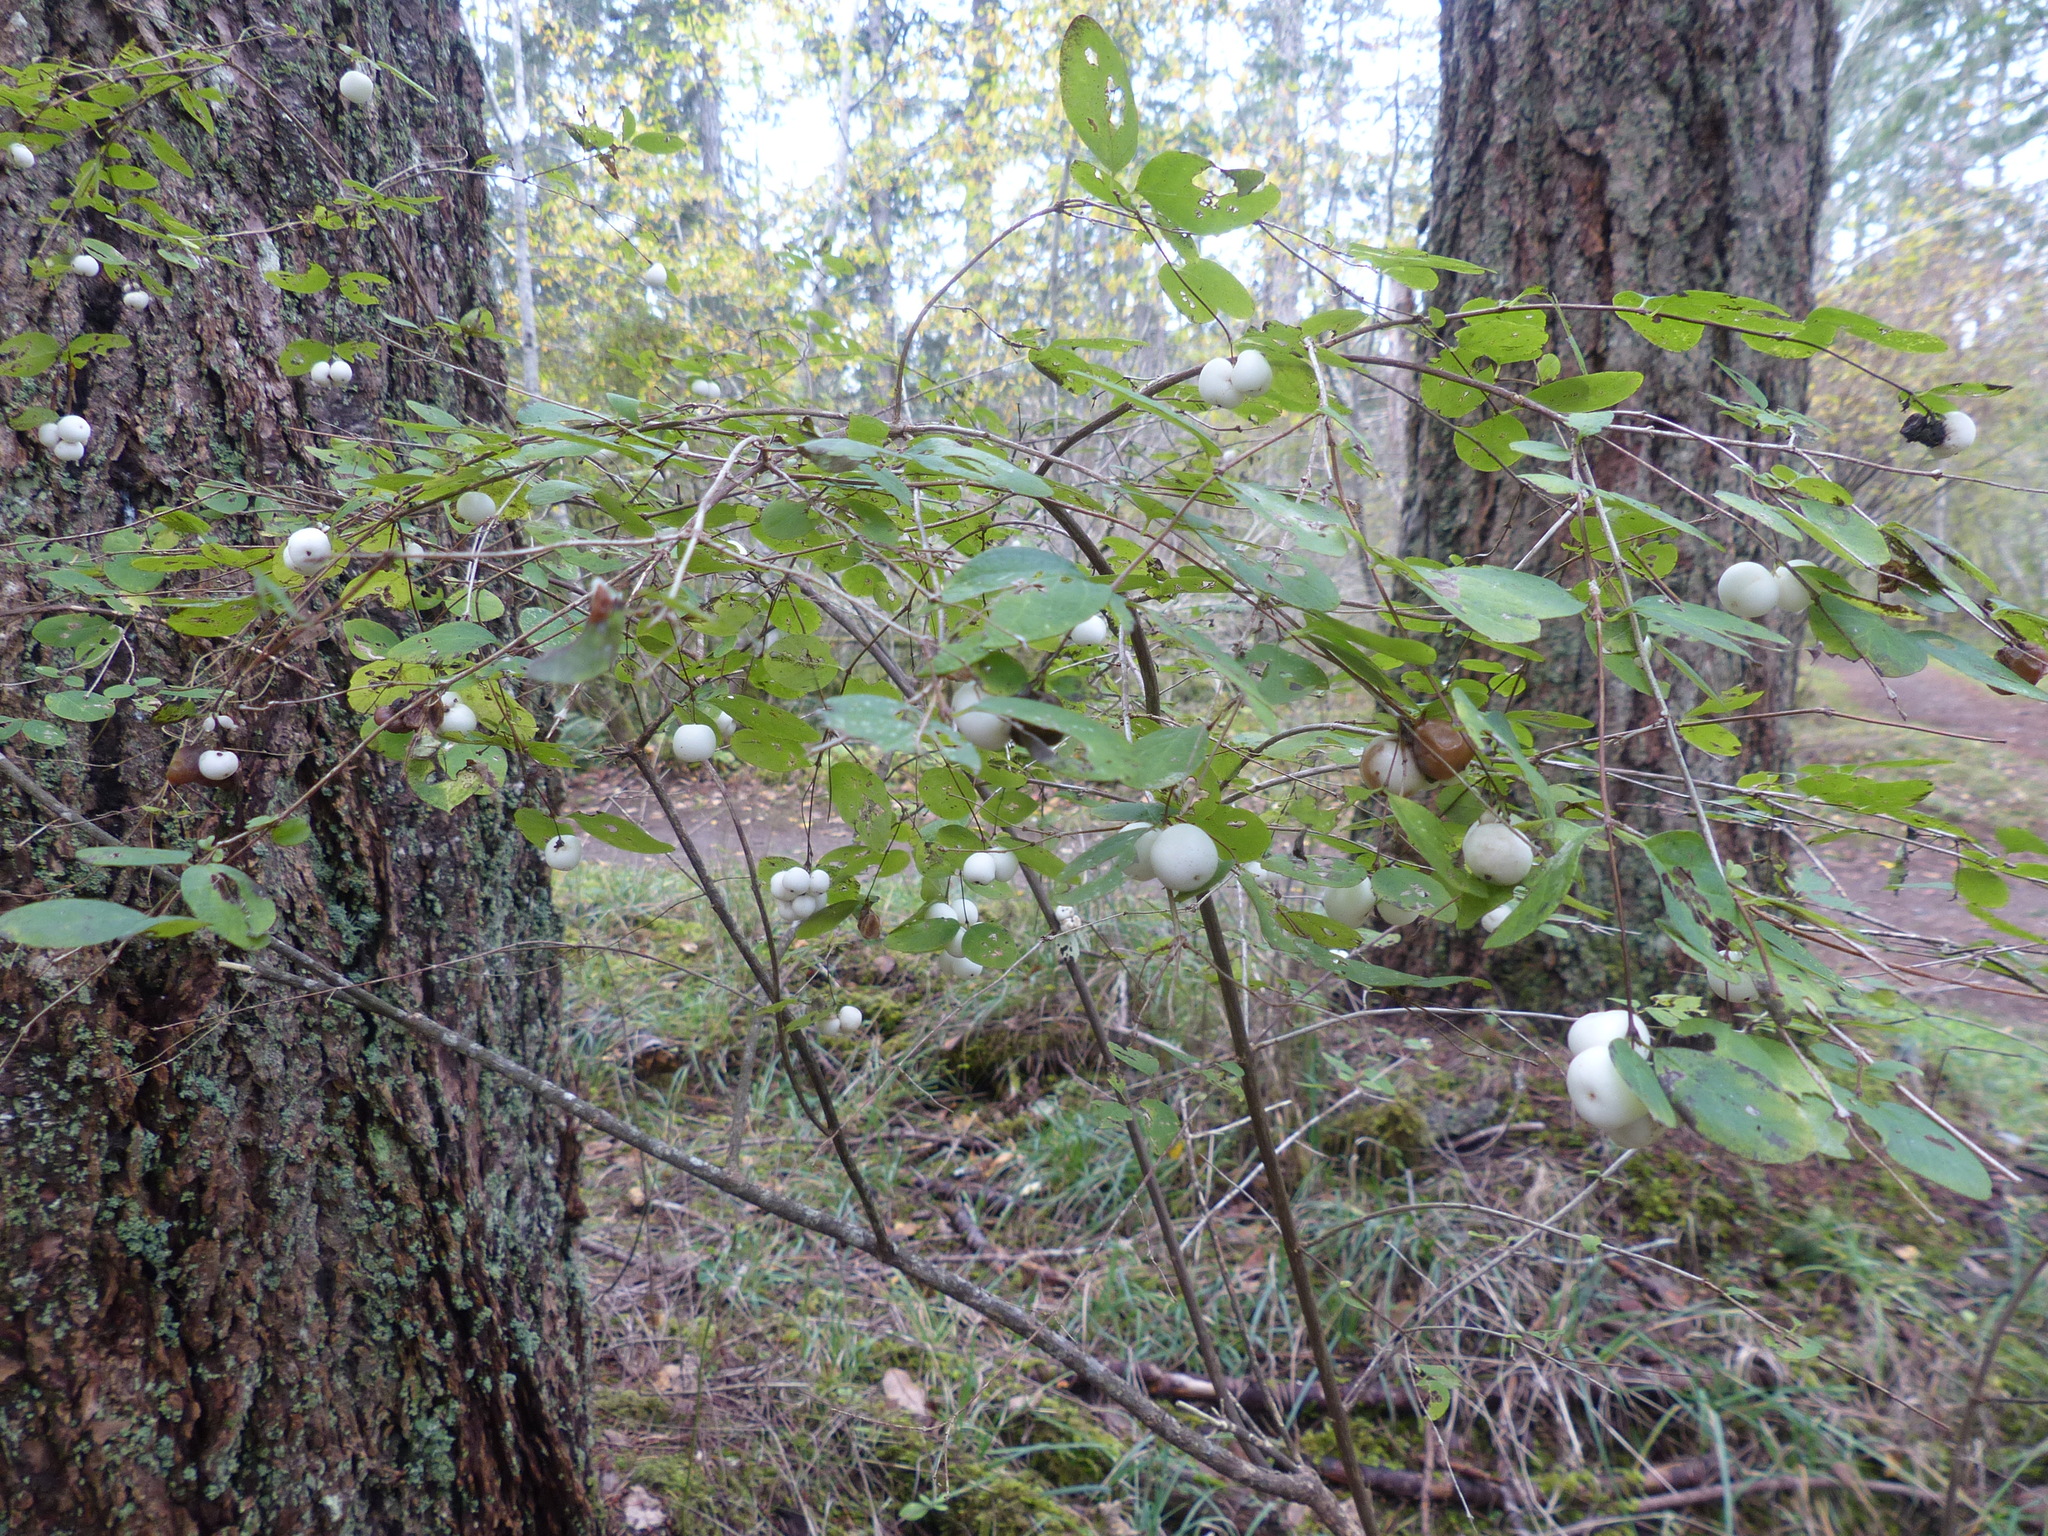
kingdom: Plantae
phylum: Tracheophyta
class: Magnoliopsida
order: Dipsacales
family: Caprifoliaceae
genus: Symphoricarpos
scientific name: Symphoricarpos albus
